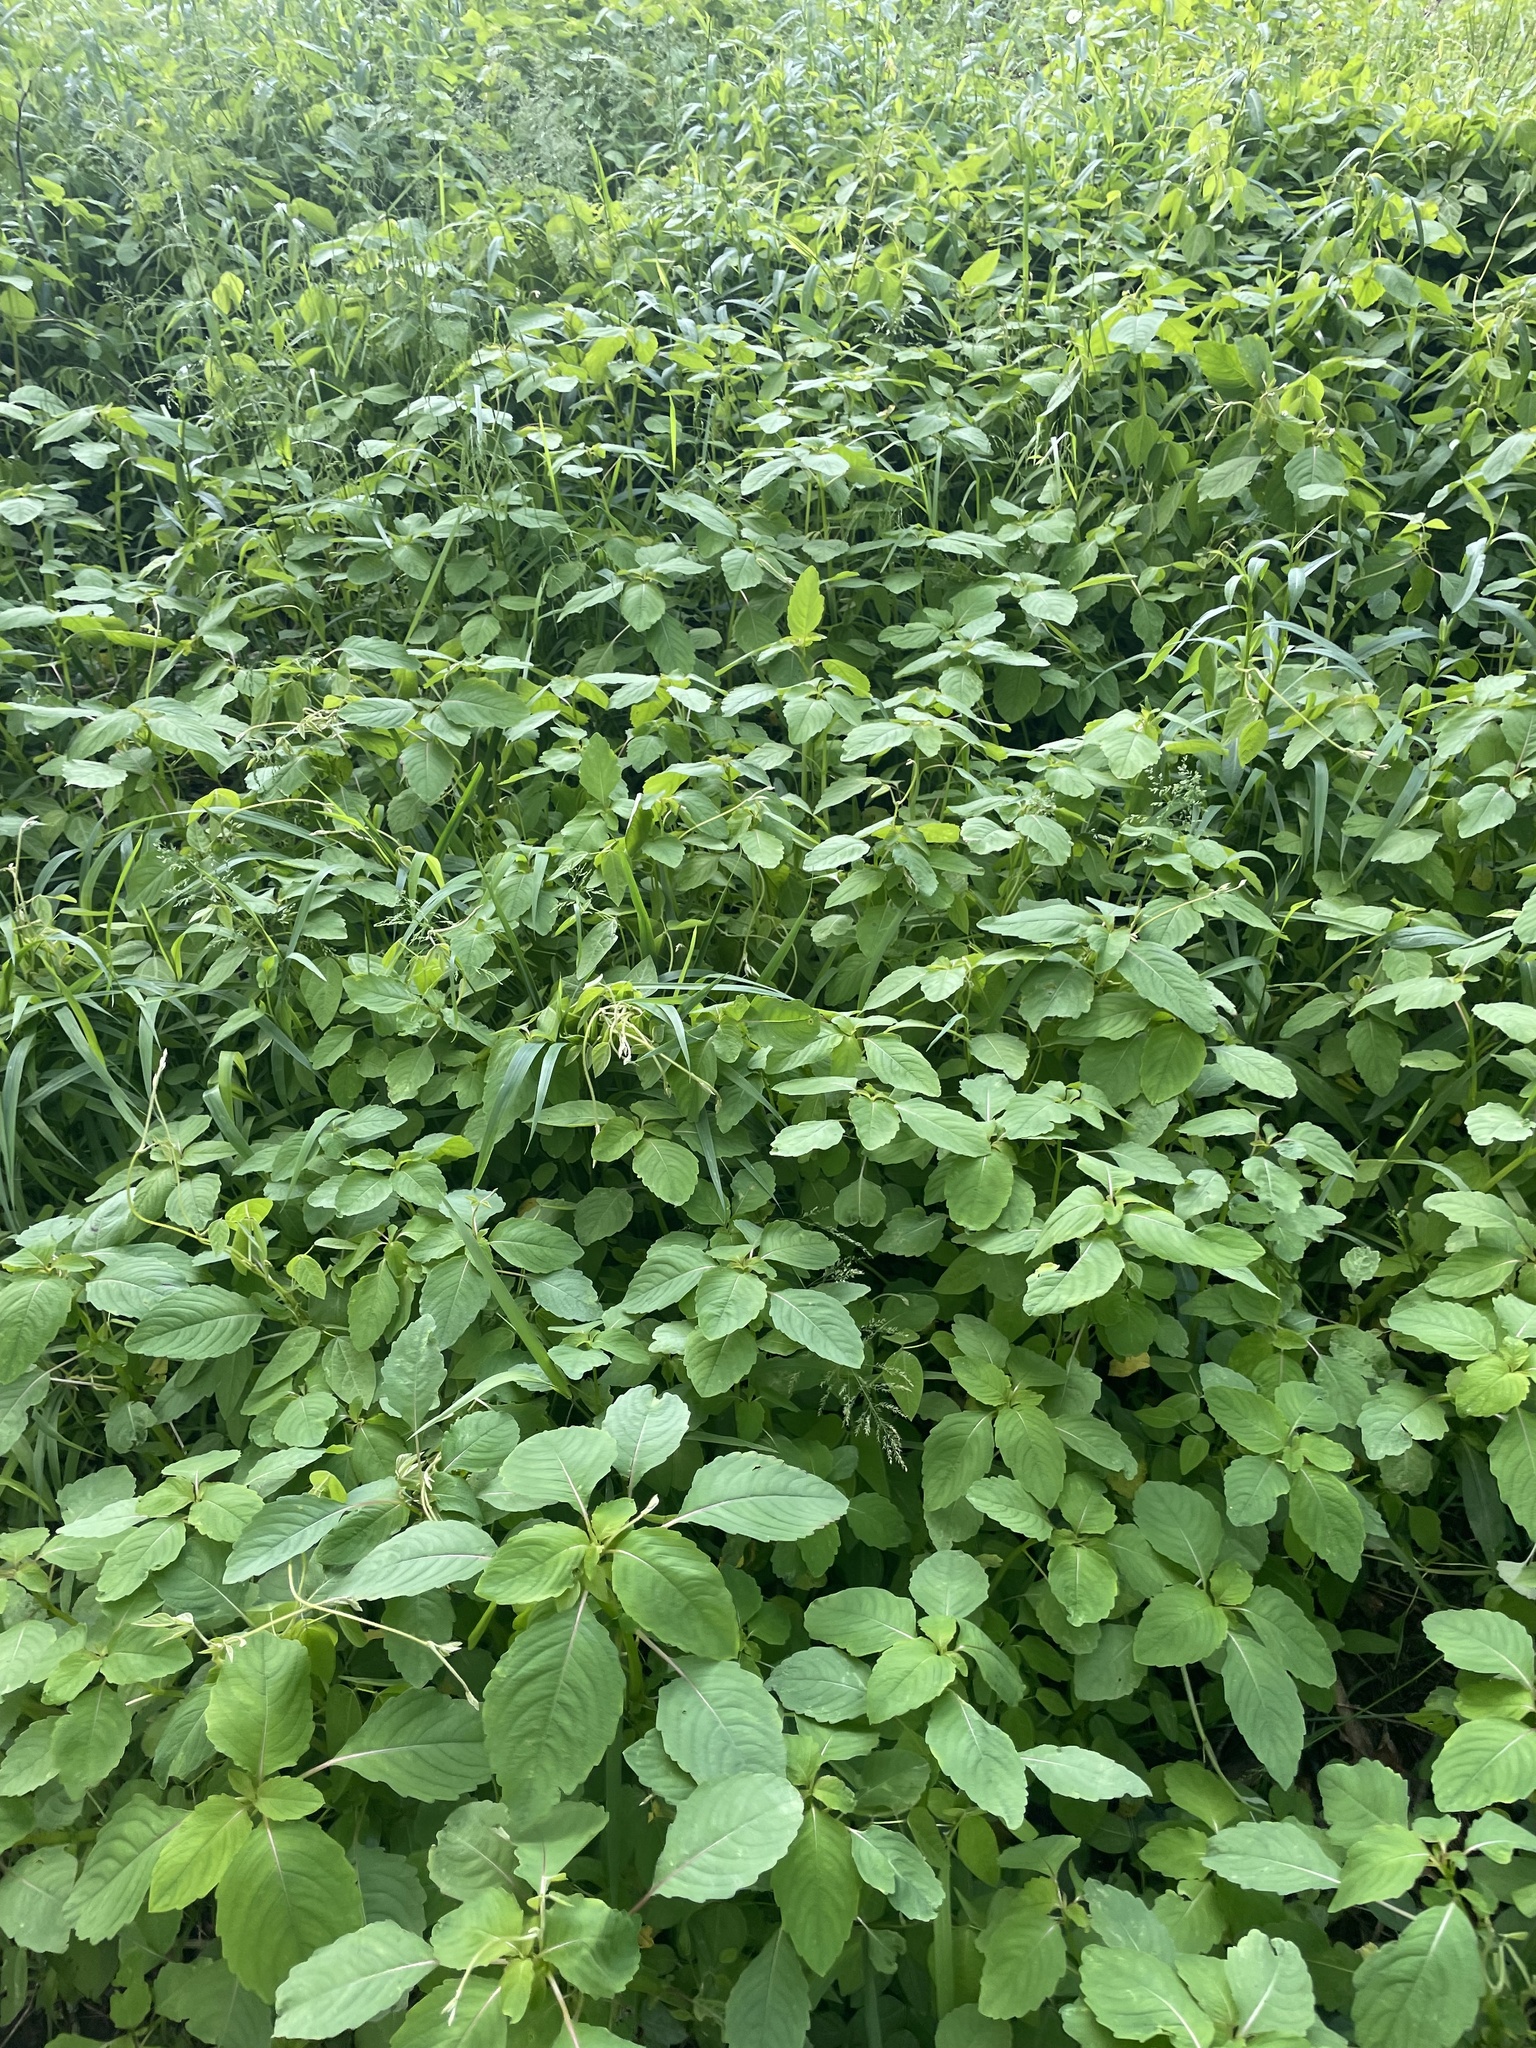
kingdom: Plantae
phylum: Tracheophyta
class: Magnoliopsida
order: Ericales
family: Balsaminaceae
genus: Impatiens
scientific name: Impatiens capensis
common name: Orange balsam
